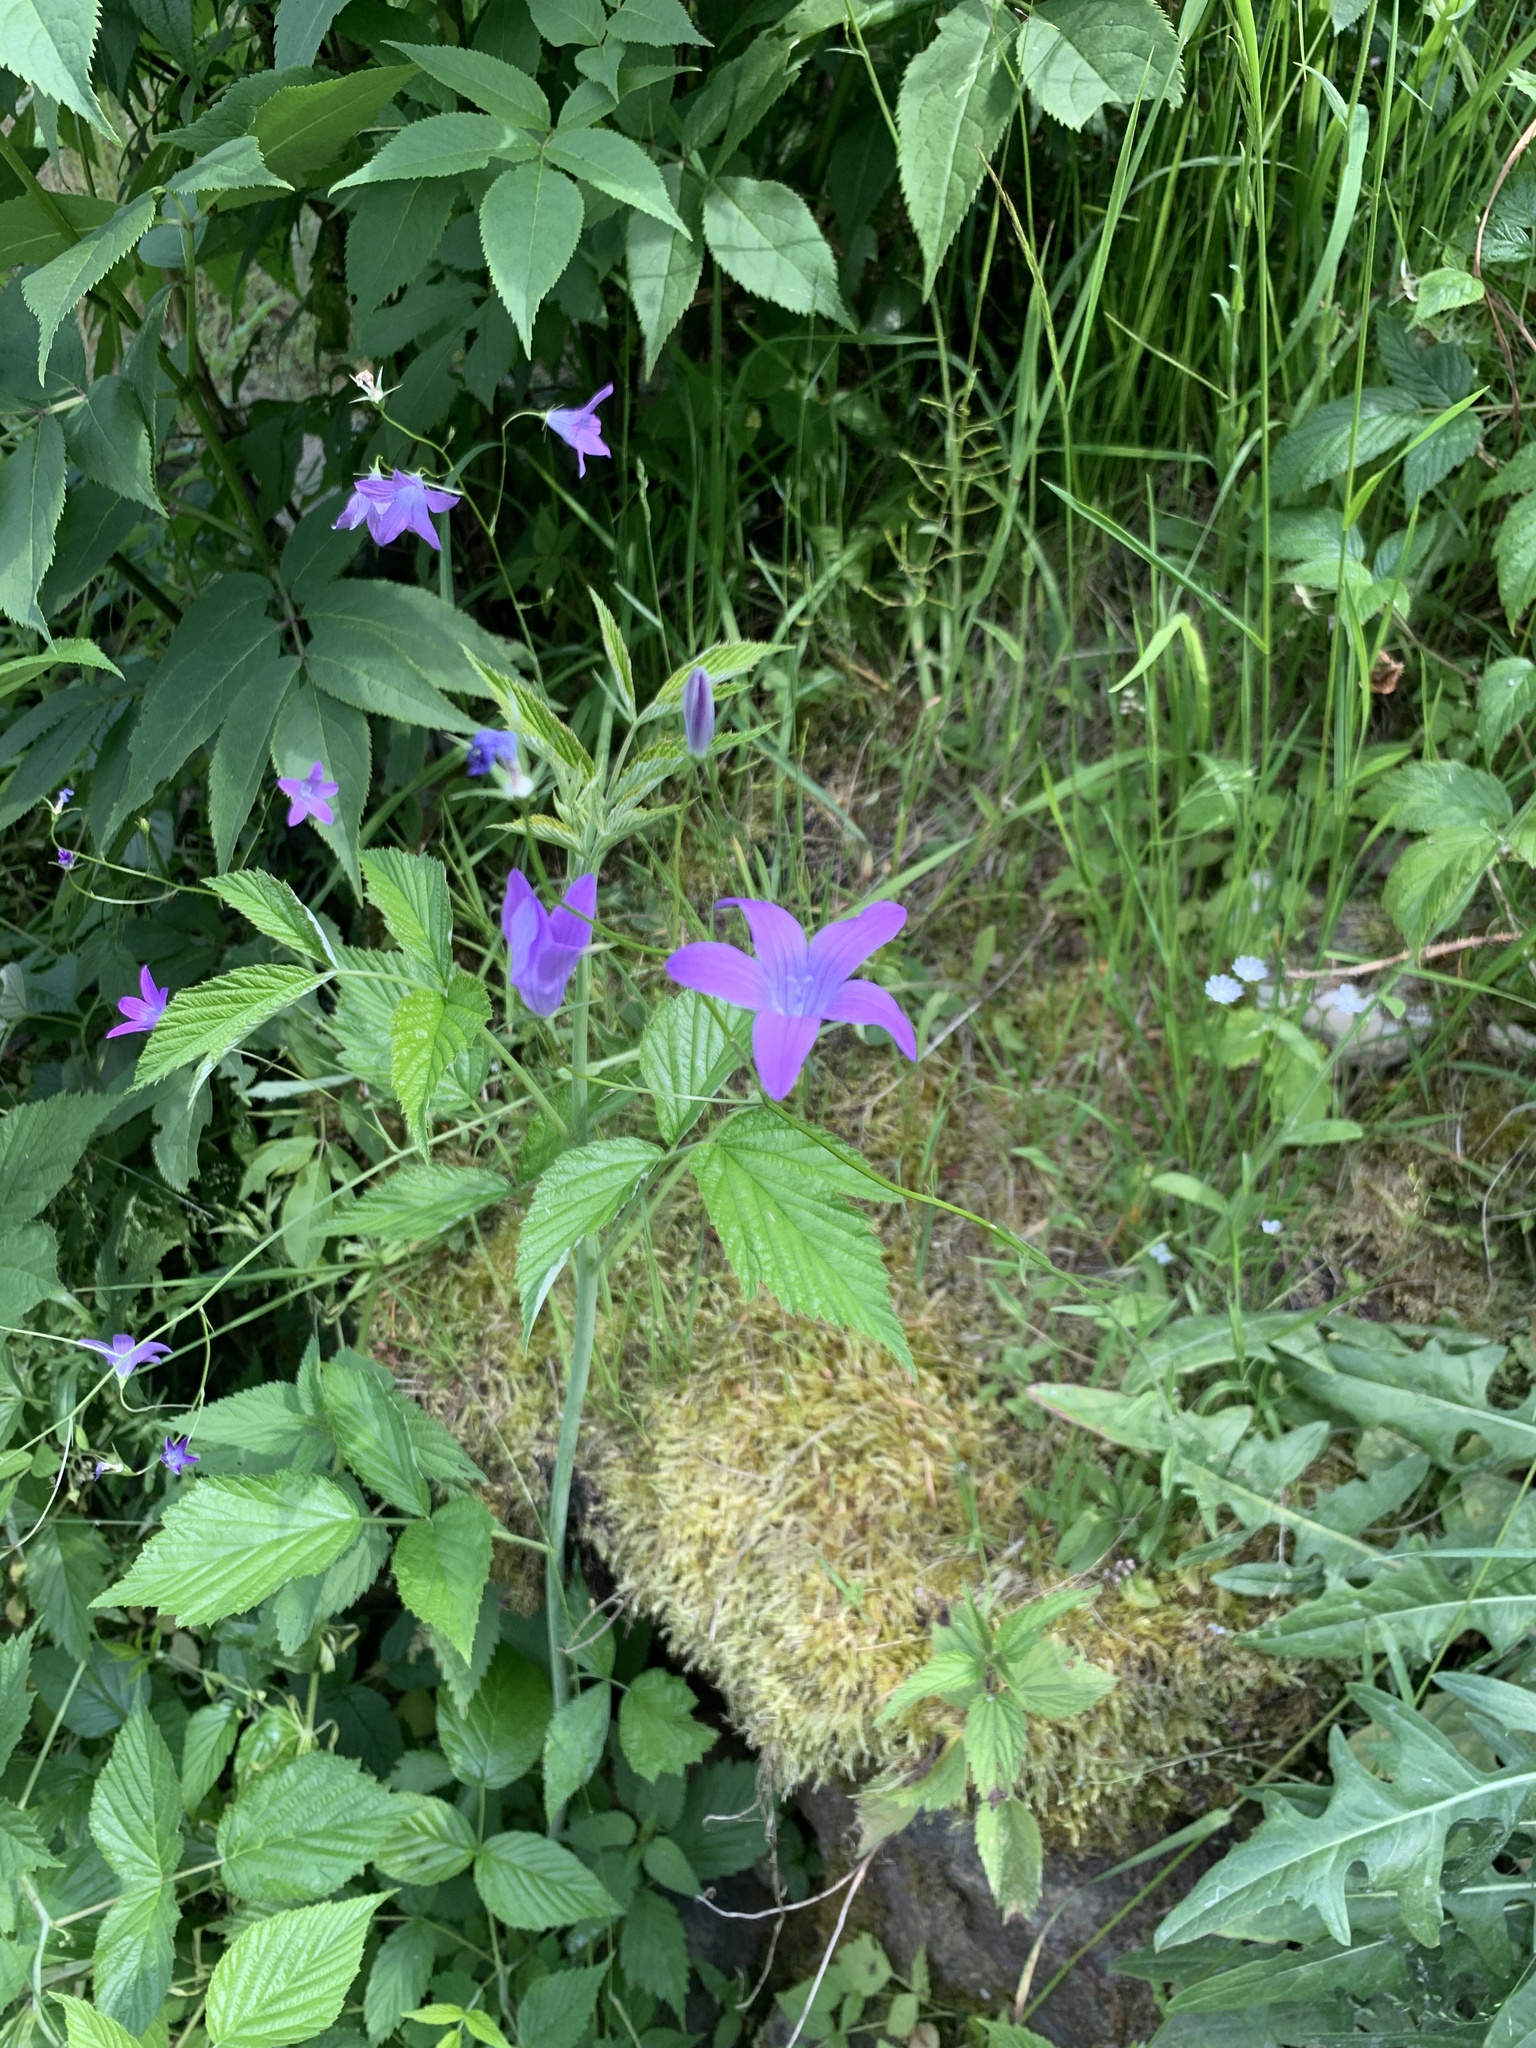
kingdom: Plantae
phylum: Tracheophyta
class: Magnoliopsida
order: Asterales
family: Campanulaceae
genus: Campanula
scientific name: Campanula patula
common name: Spreading bellflower
